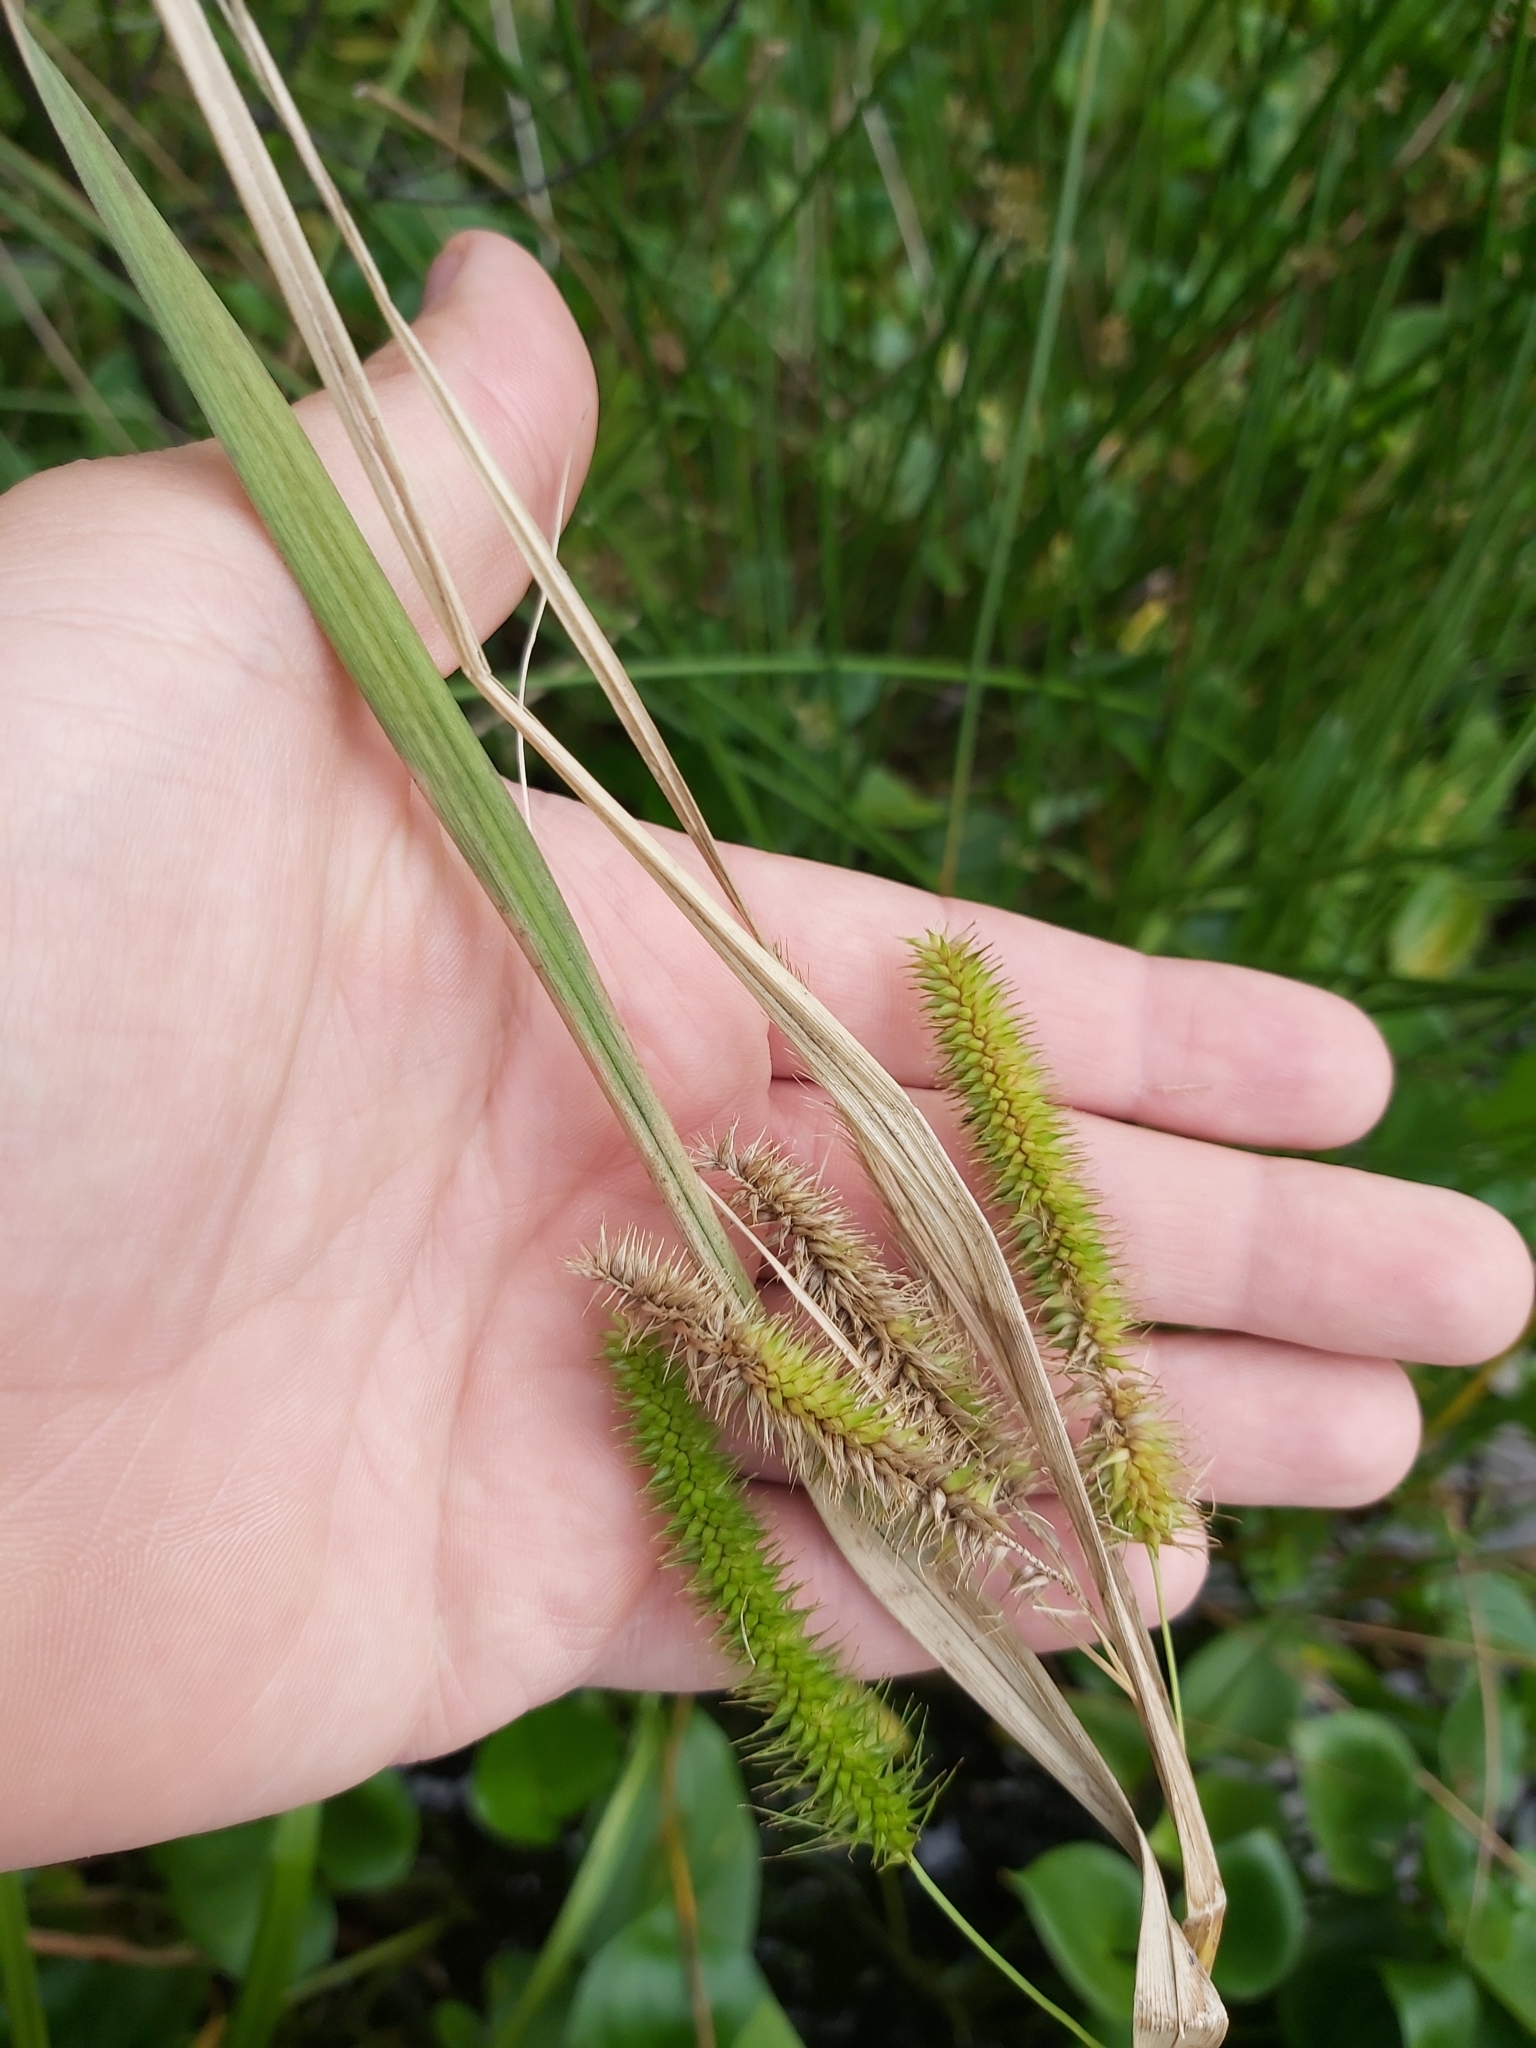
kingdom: Plantae
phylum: Tracheophyta
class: Liliopsida
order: Poales
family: Cyperaceae
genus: Carex
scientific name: Carex pseudocyperus
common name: Cyperus sedge
